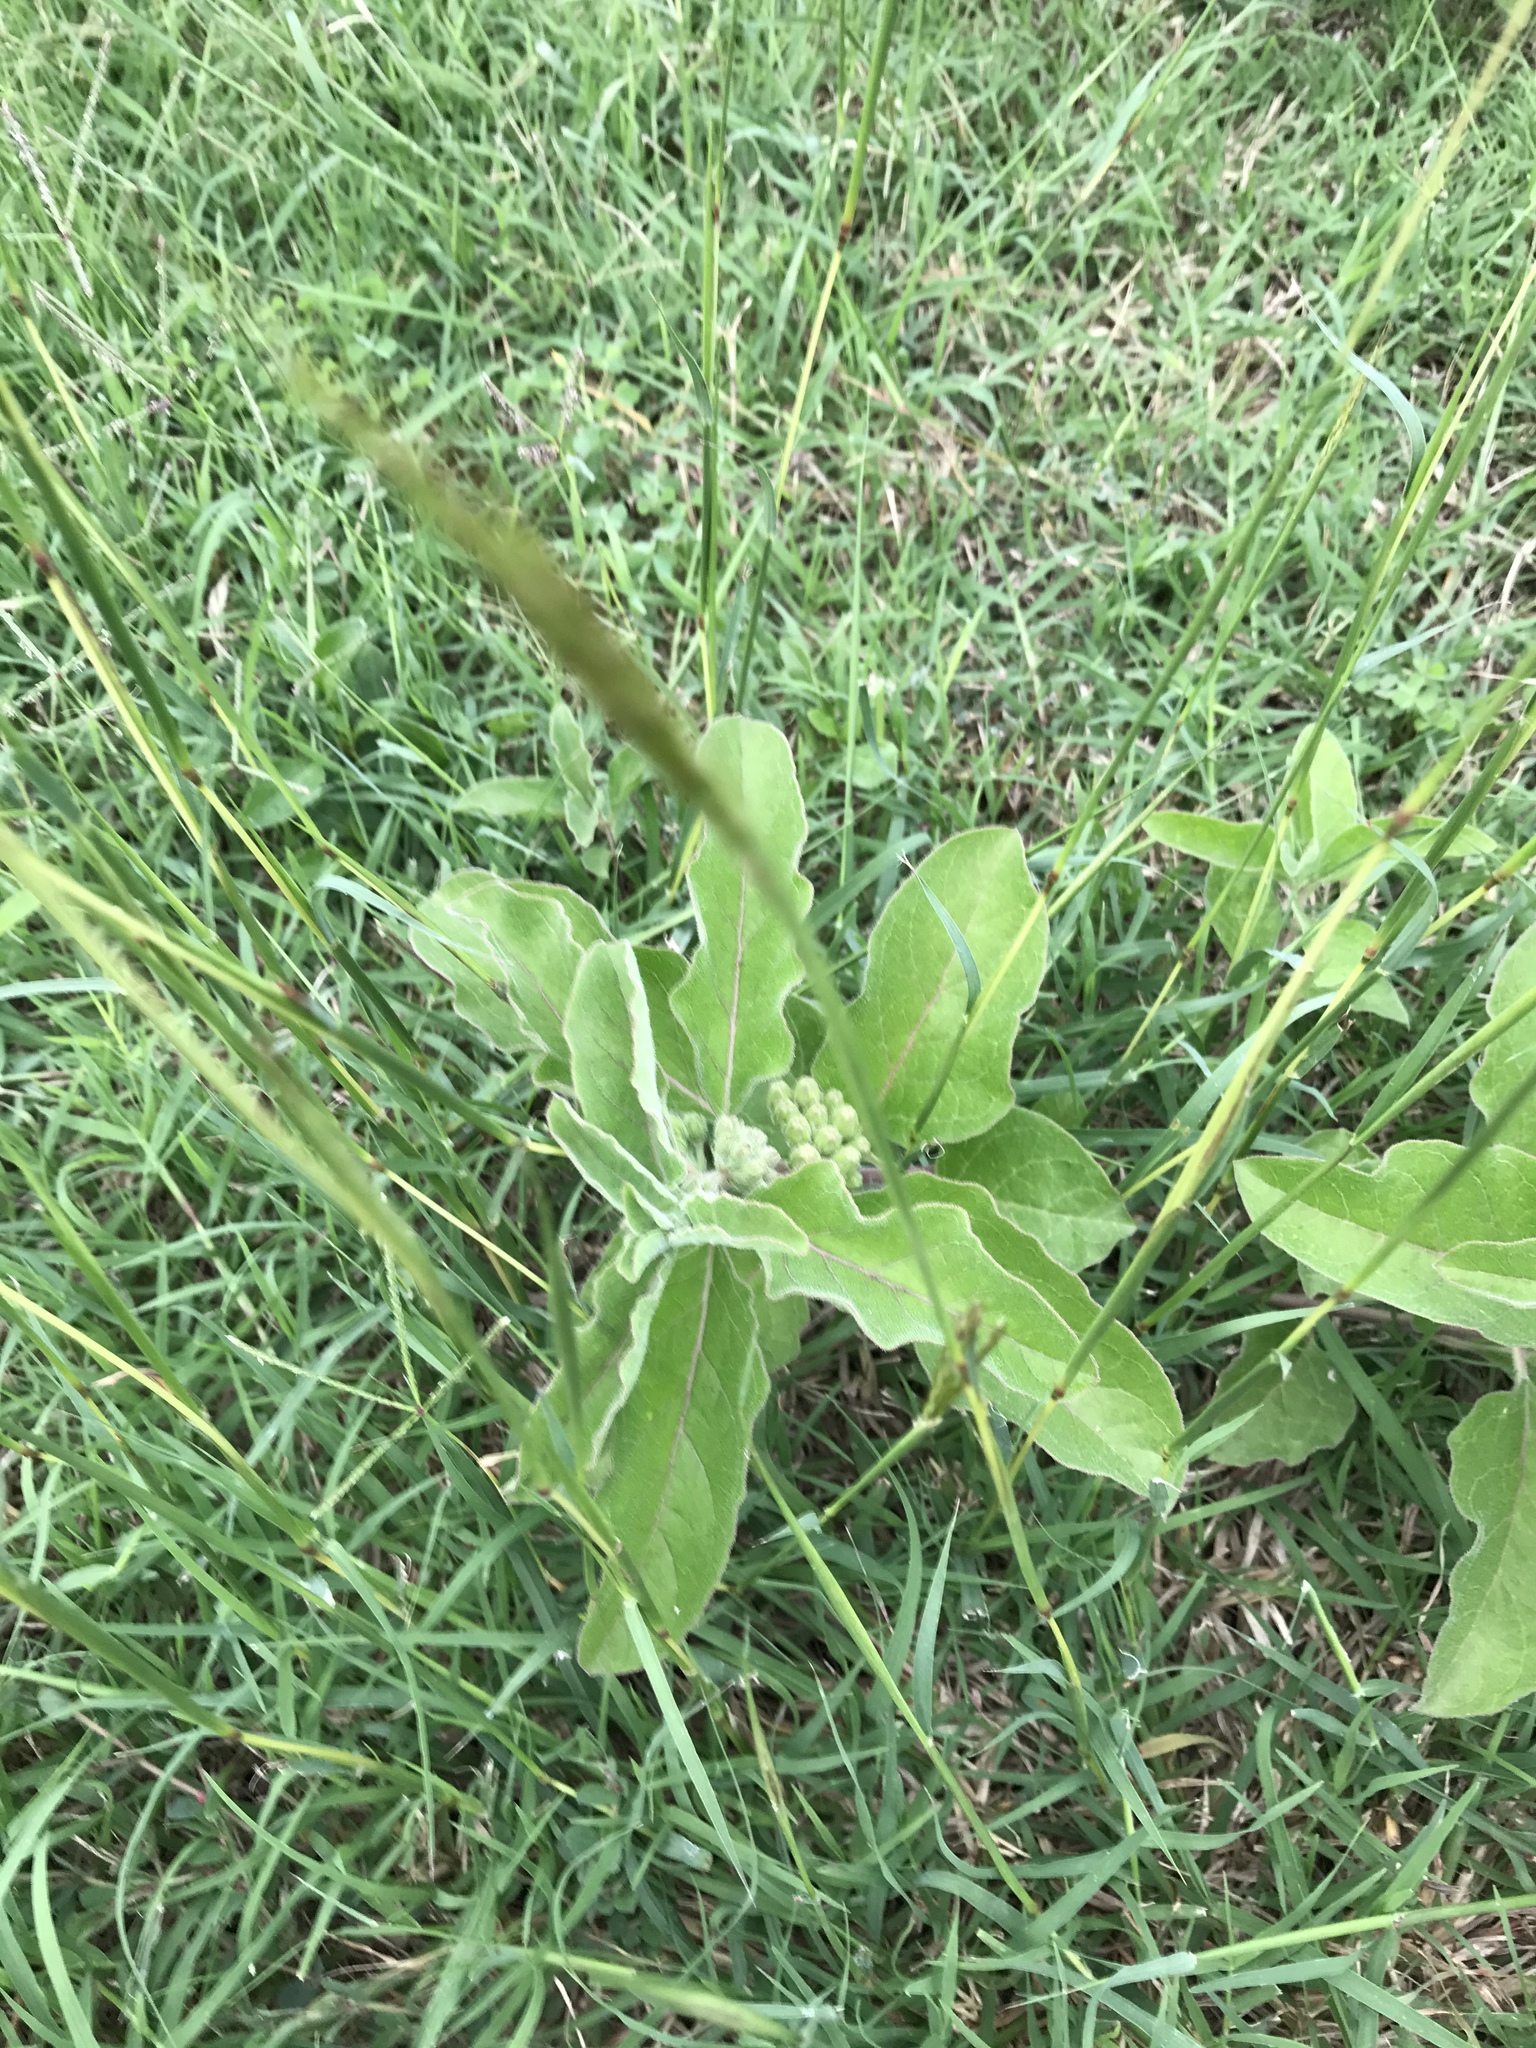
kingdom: Plantae
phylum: Tracheophyta
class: Magnoliopsida
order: Gentianales
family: Apocynaceae
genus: Asclepias
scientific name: Asclepias oenotheroides
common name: Zizotes milkweed
